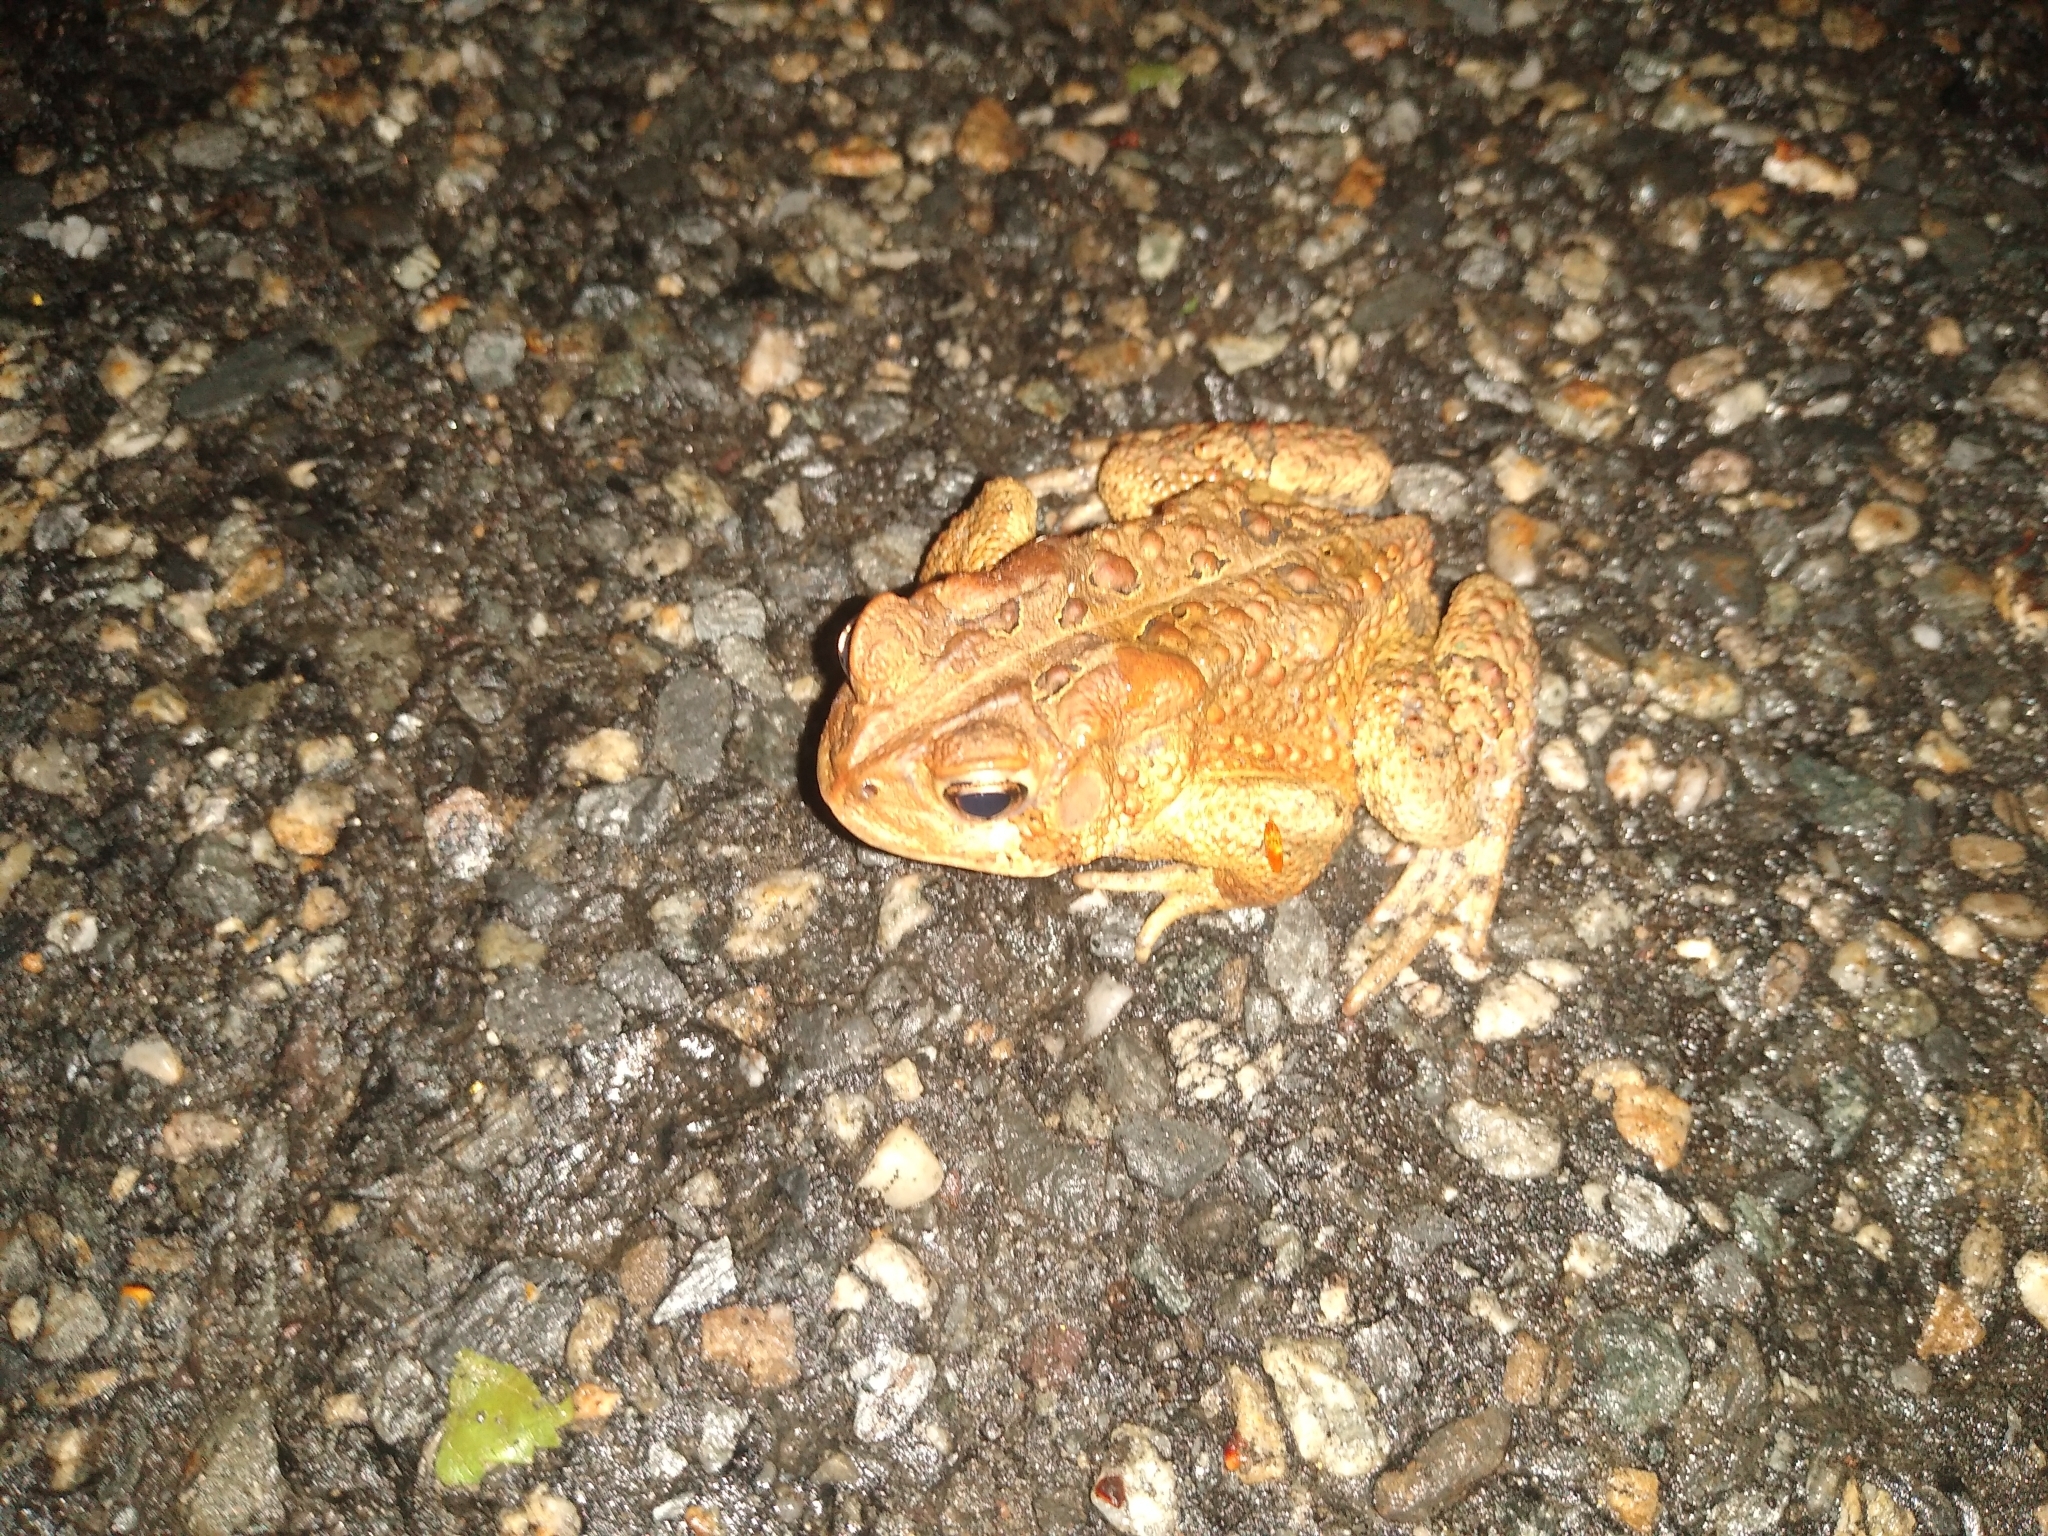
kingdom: Animalia
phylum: Chordata
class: Amphibia
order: Anura
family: Bufonidae
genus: Anaxyrus
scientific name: Anaxyrus americanus
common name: American toad
